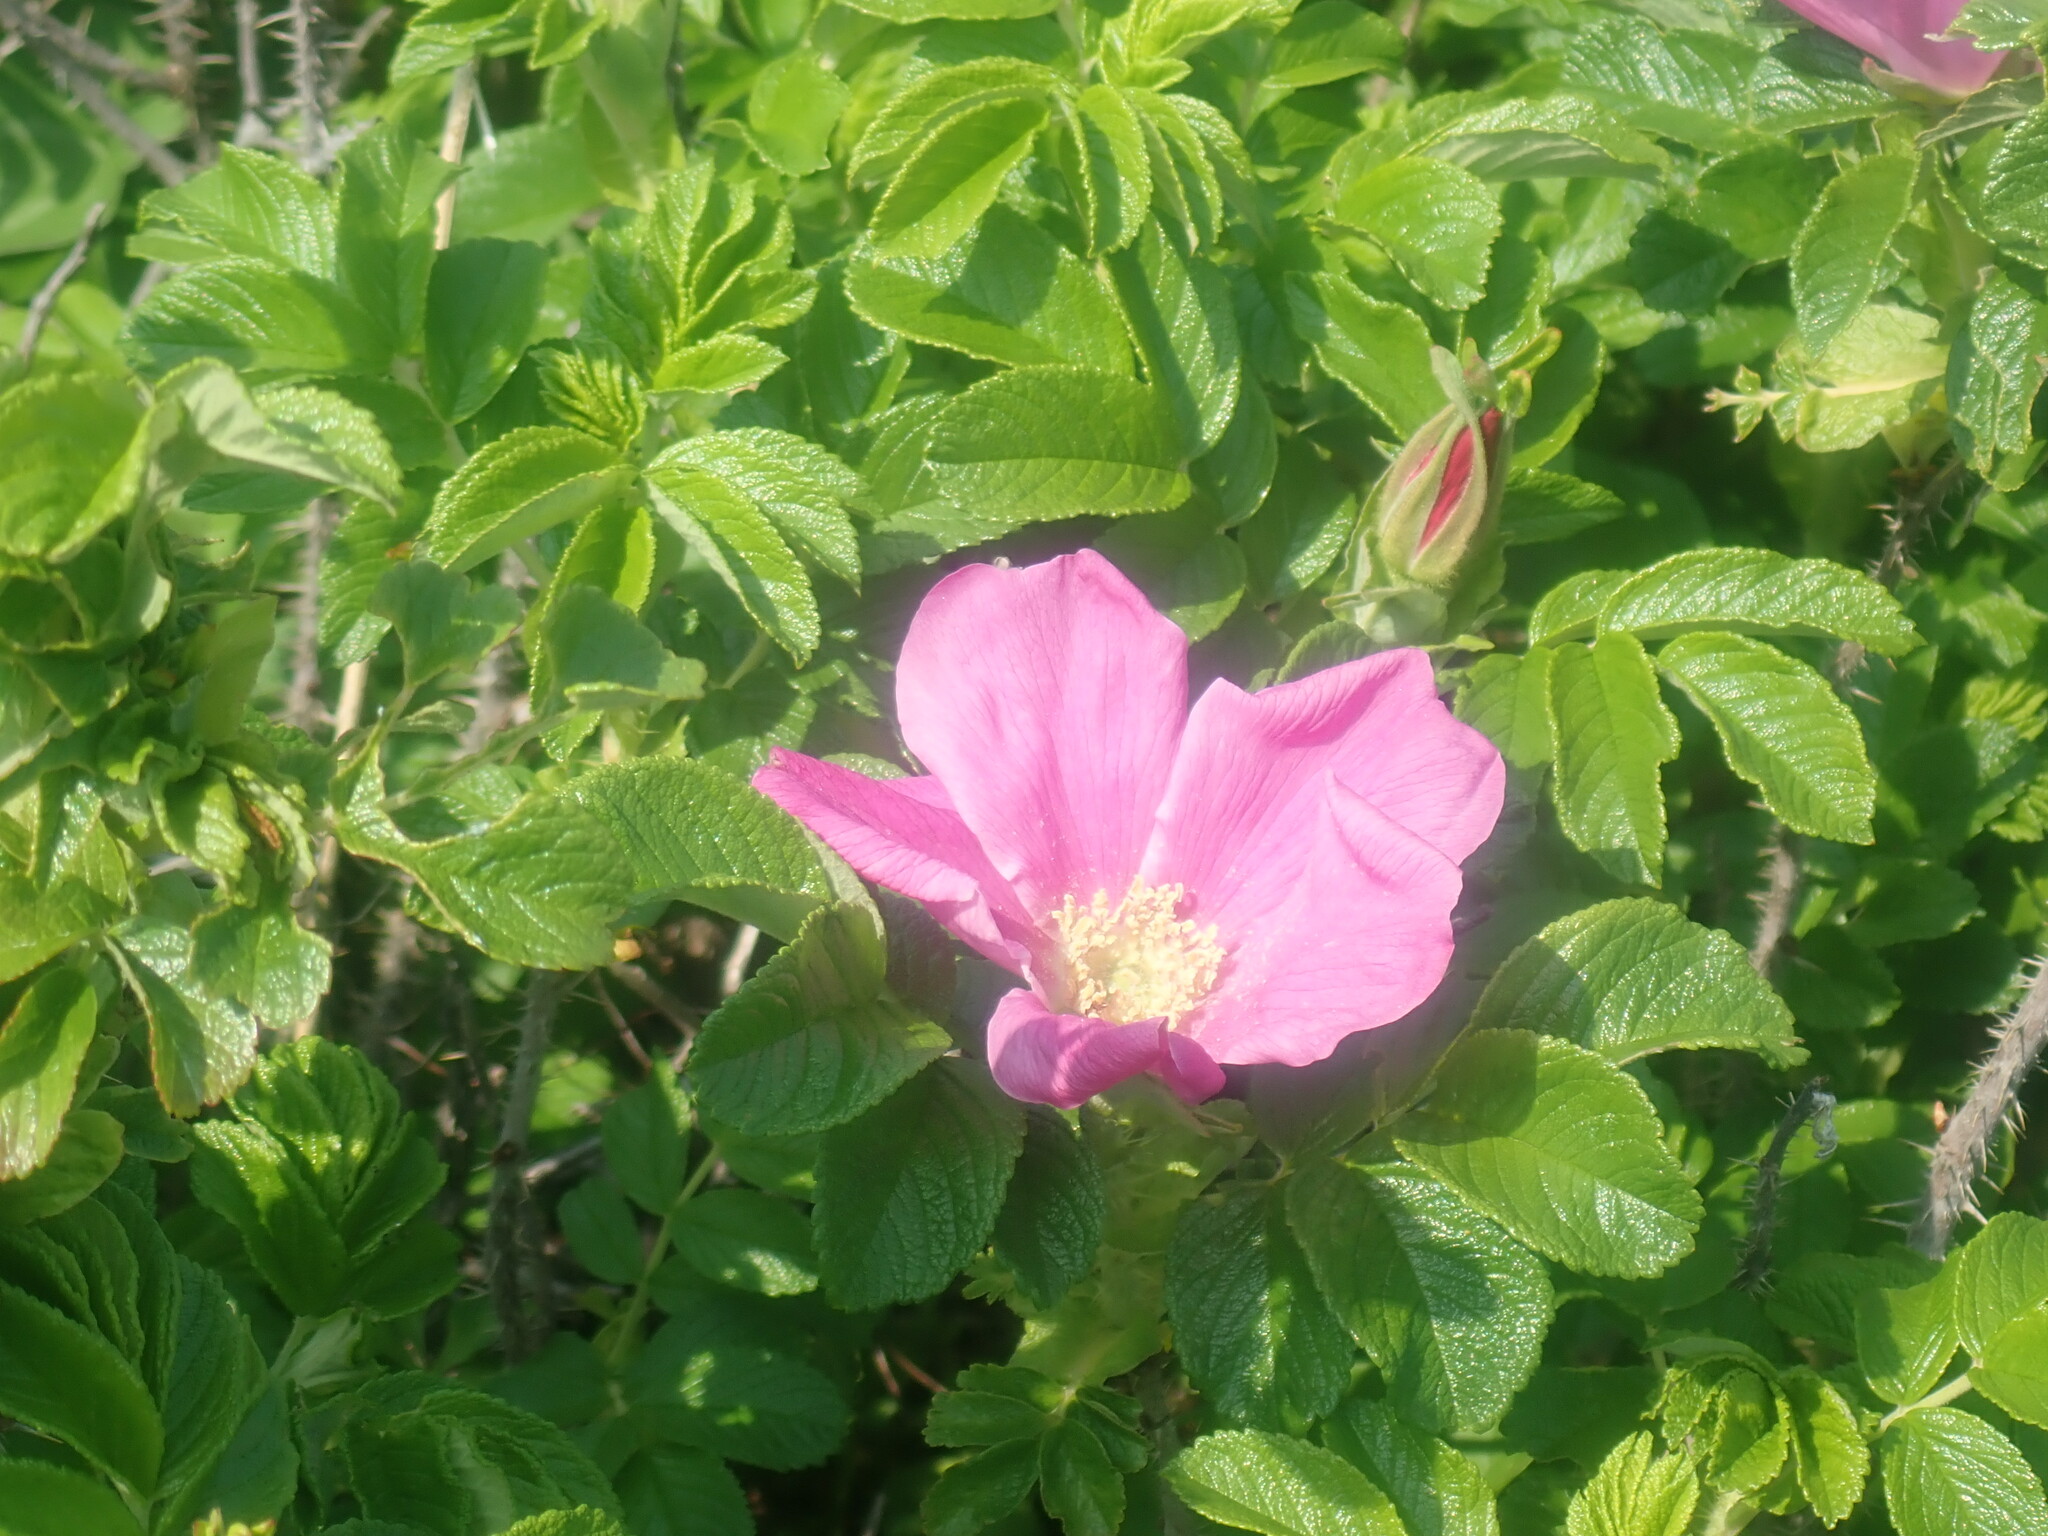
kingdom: Plantae
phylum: Tracheophyta
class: Magnoliopsida
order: Rosales
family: Rosaceae
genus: Rosa
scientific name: Rosa rugosa
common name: Japanese rose
